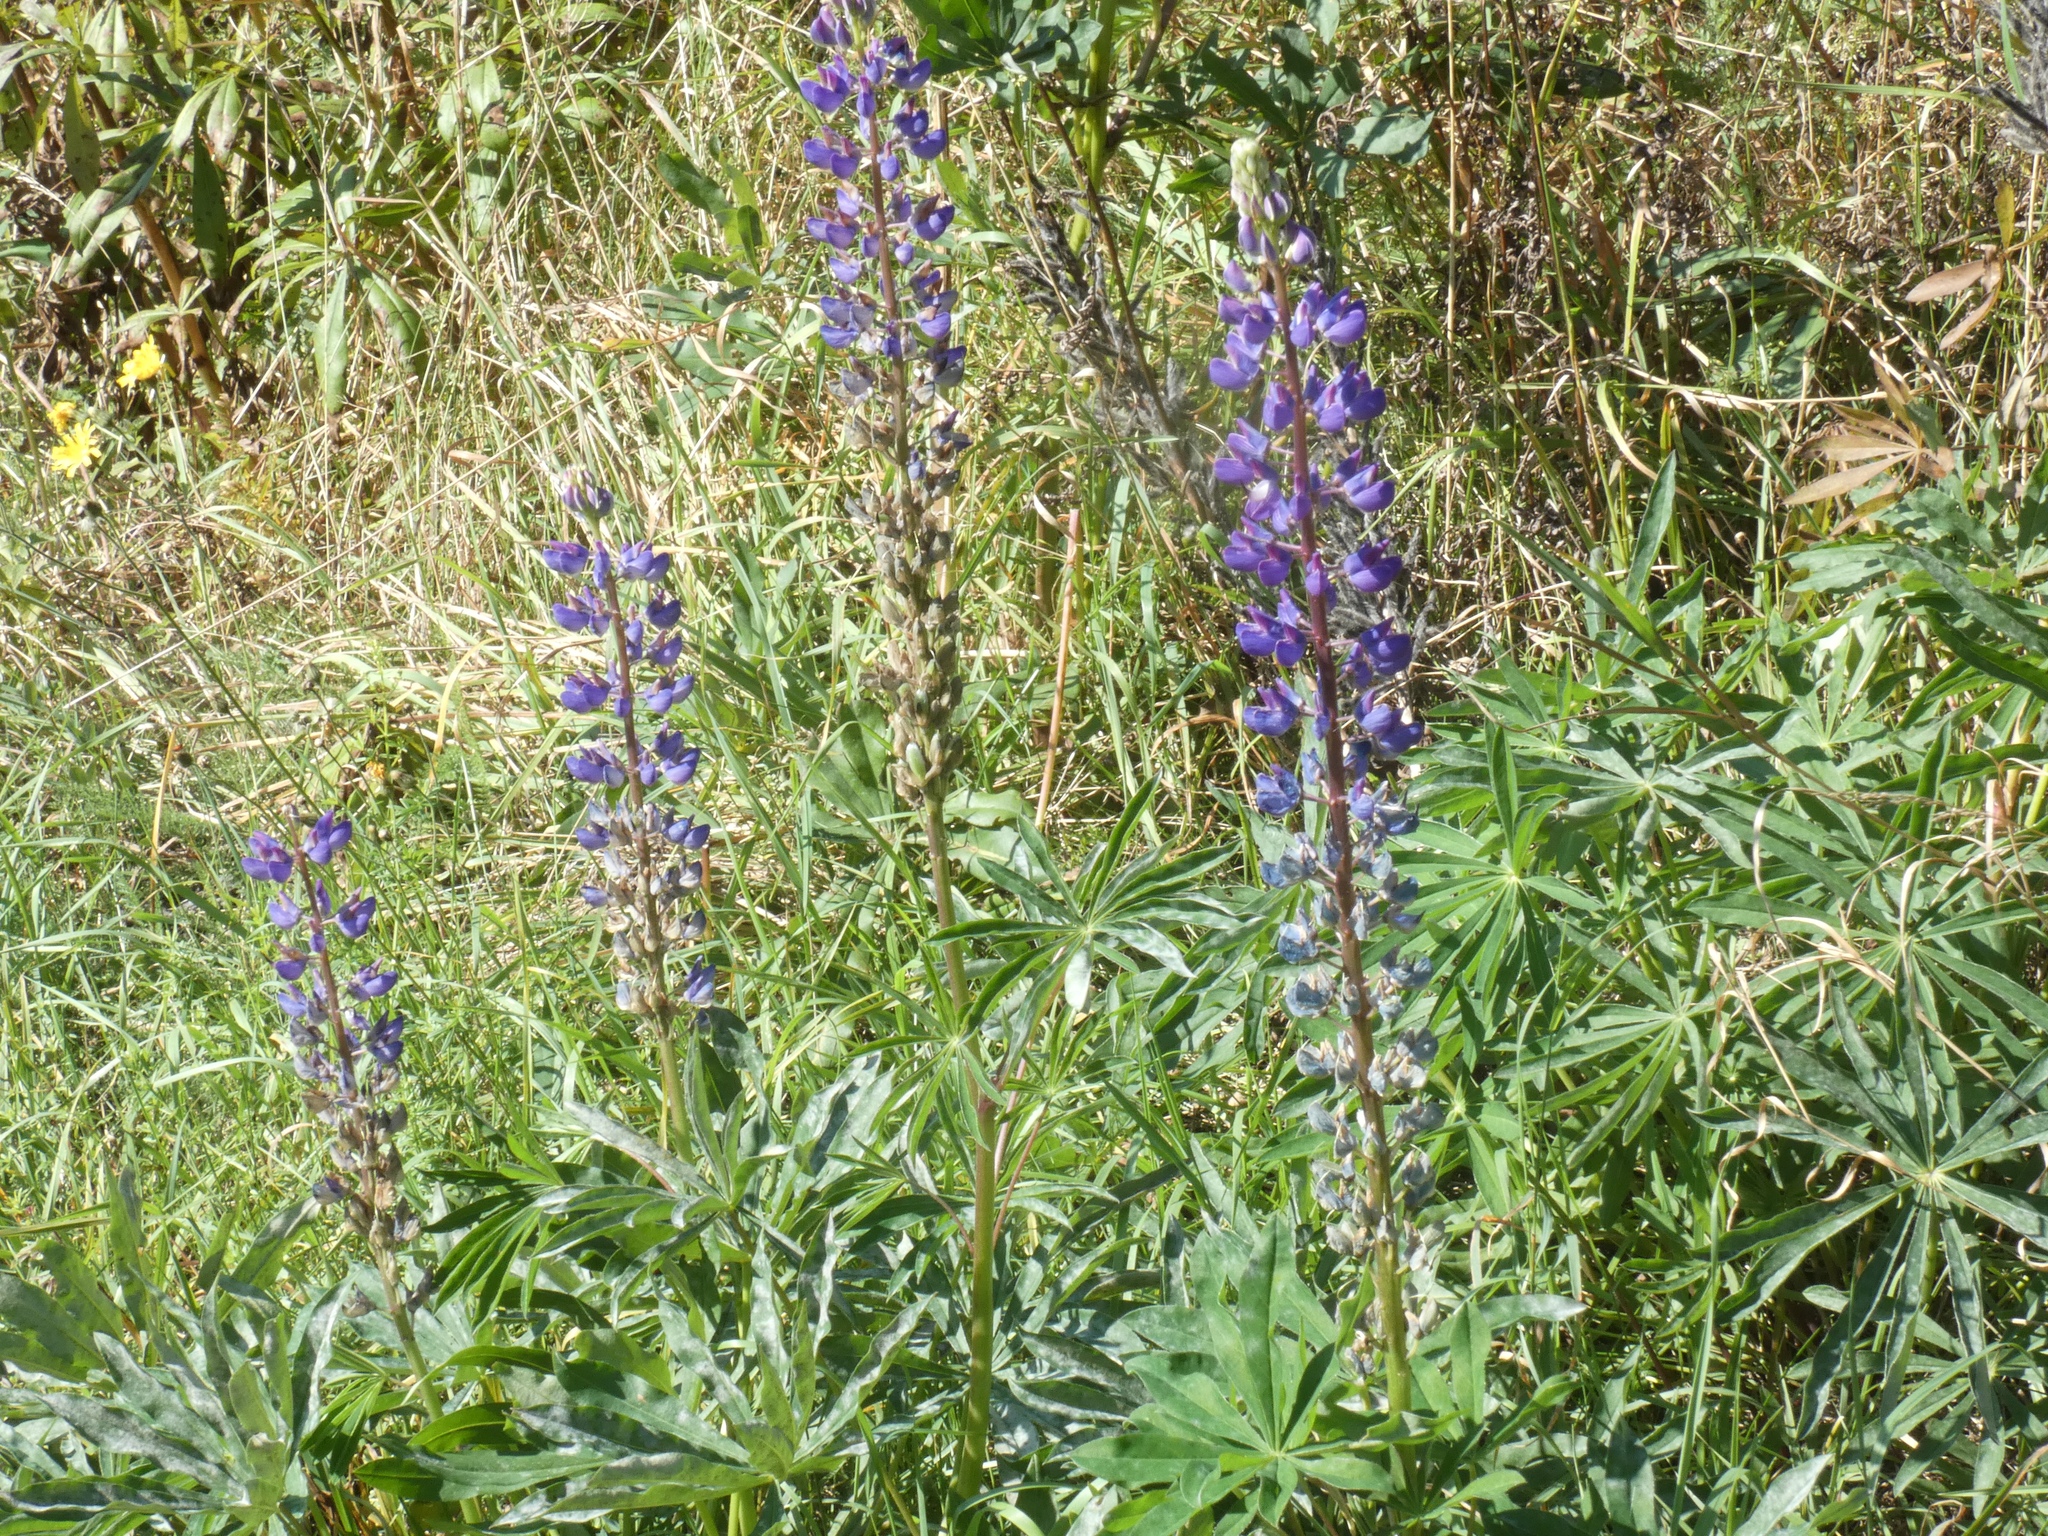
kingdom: Plantae
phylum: Tracheophyta
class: Magnoliopsida
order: Fabales
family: Fabaceae
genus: Lupinus
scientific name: Lupinus polyphyllus
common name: Garden lupin
